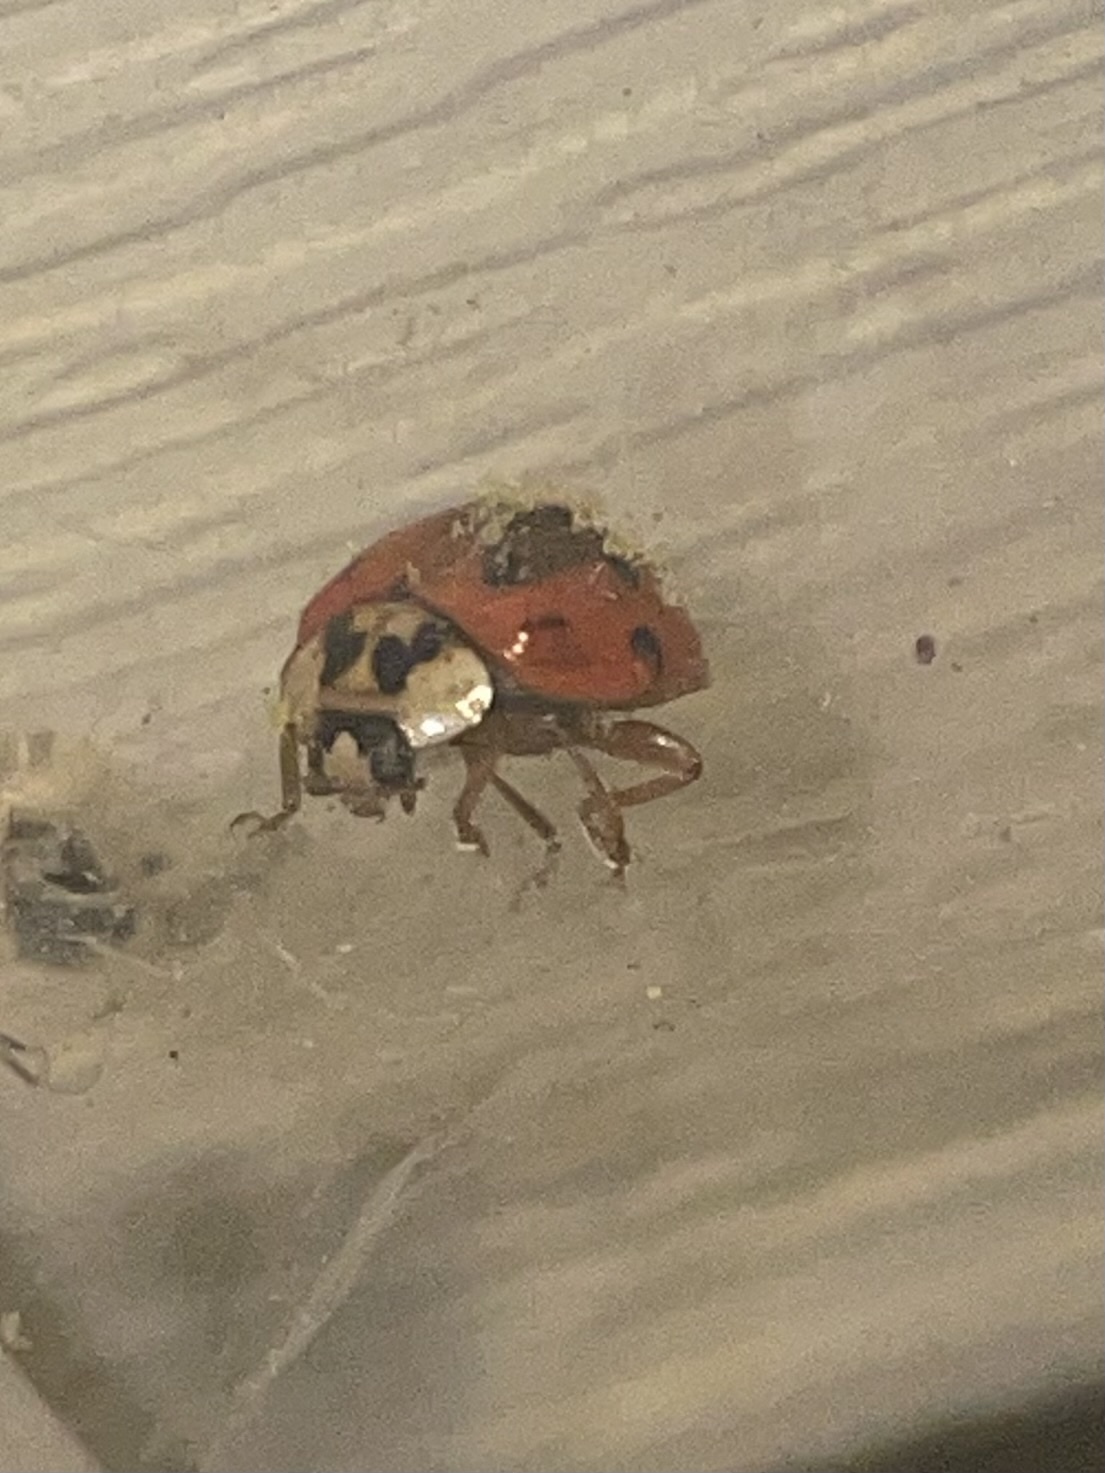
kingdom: Animalia
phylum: Arthropoda
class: Insecta
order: Coleoptera
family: Coccinellidae
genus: Harmonia
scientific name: Harmonia axyridis
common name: Harlequin ladybird
